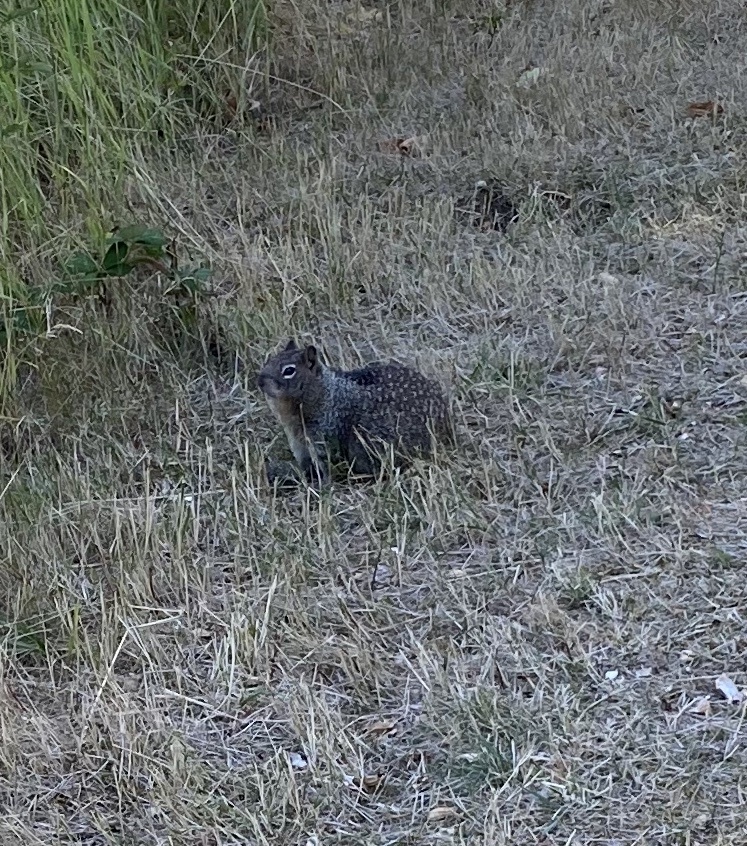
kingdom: Animalia
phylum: Chordata
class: Mammalia
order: Rodentia
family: Sciuridae
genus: Otospermophilus
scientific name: Otospermophilus beecheyi
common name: California ground squirrel
